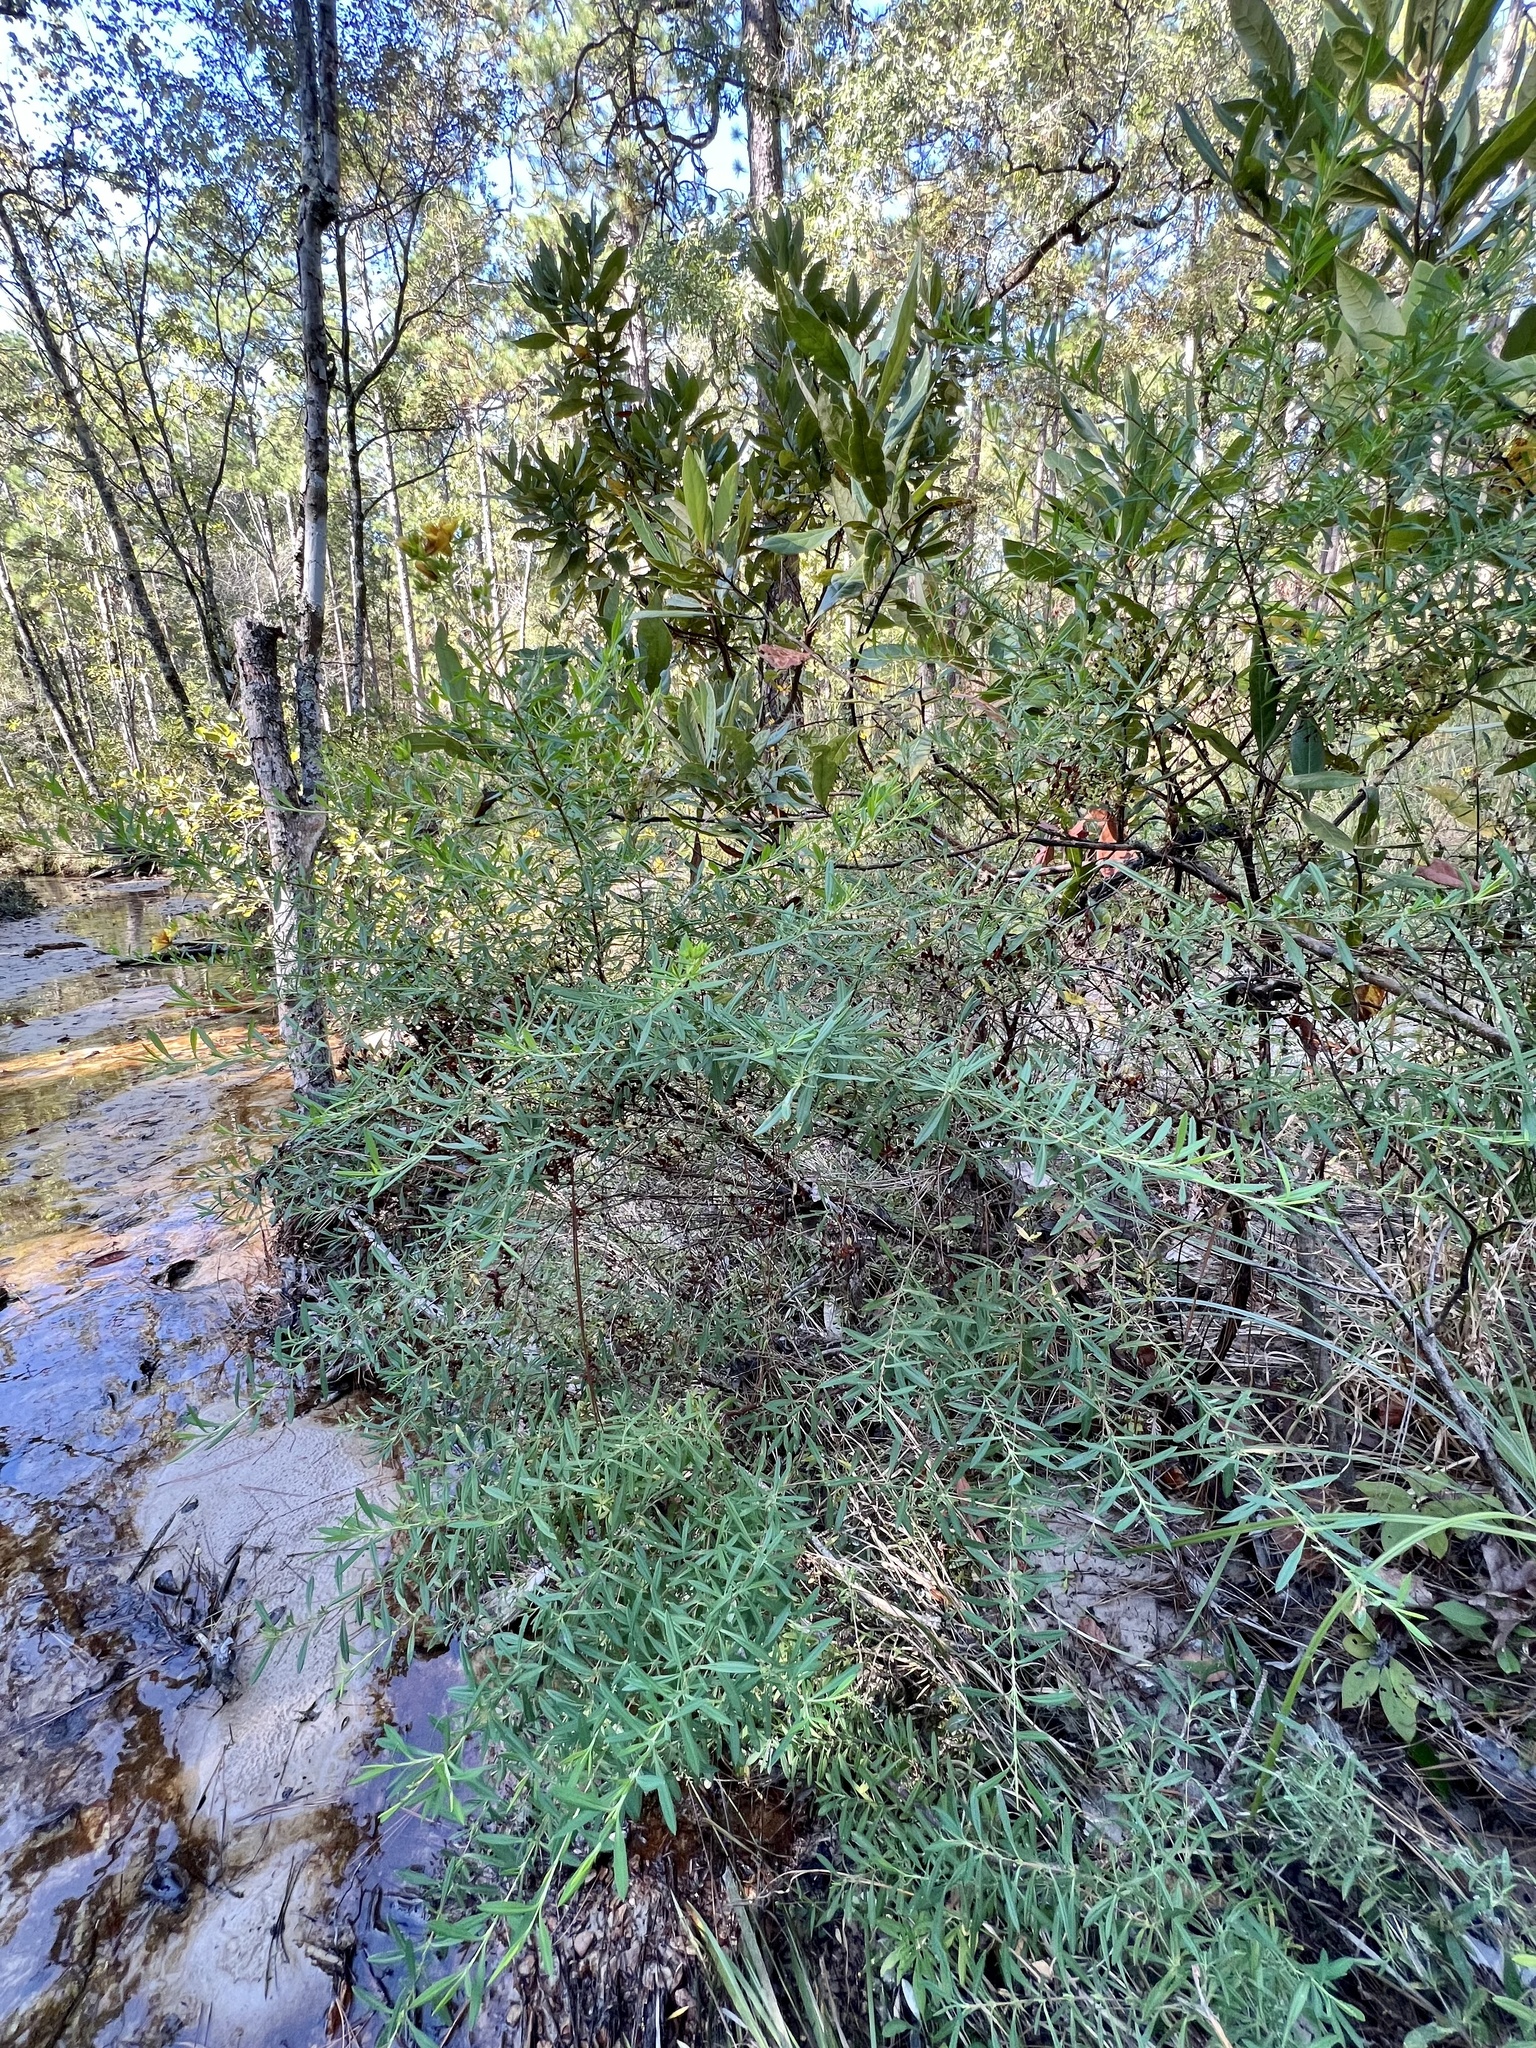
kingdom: Plantae
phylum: Tracheophyta
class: Magnoliopsida
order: Malpighiales
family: Hypericaceae
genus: Hypericum
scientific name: Hypericum lobocarpum
